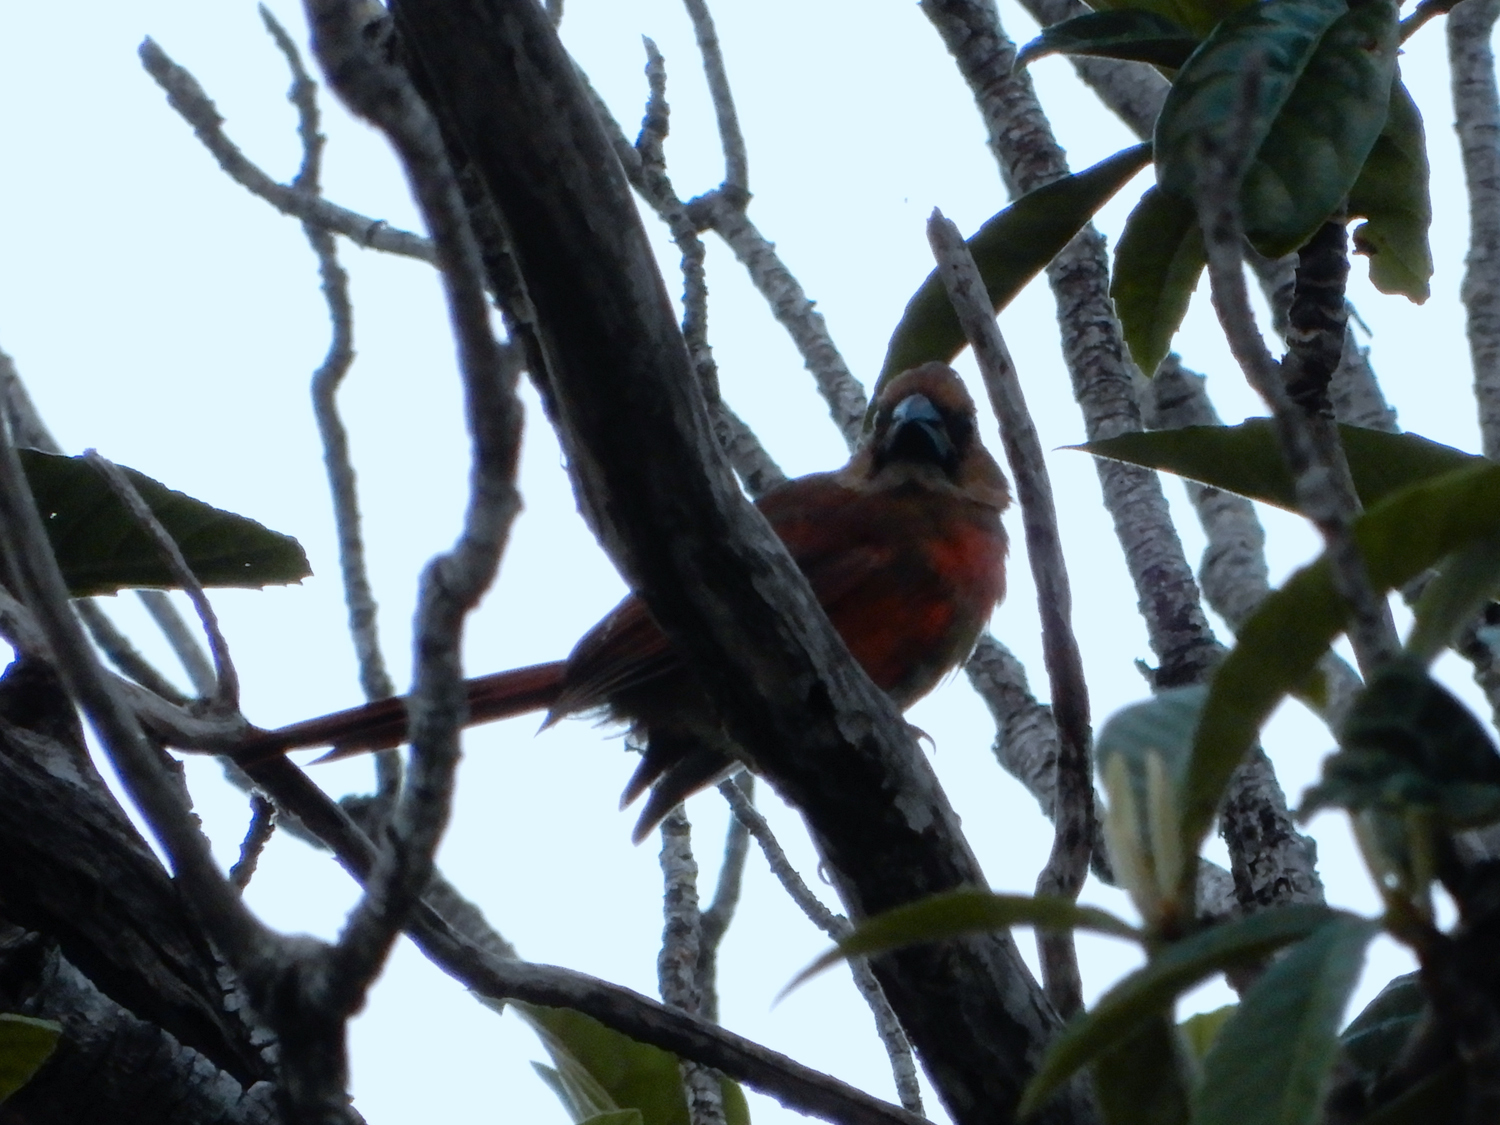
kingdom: Animalia
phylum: Chordata
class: Aves
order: Passeriformes
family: Cardinalidae
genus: Cardinalis
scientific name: Cardinalis cardinalis
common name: Northern cardinal
